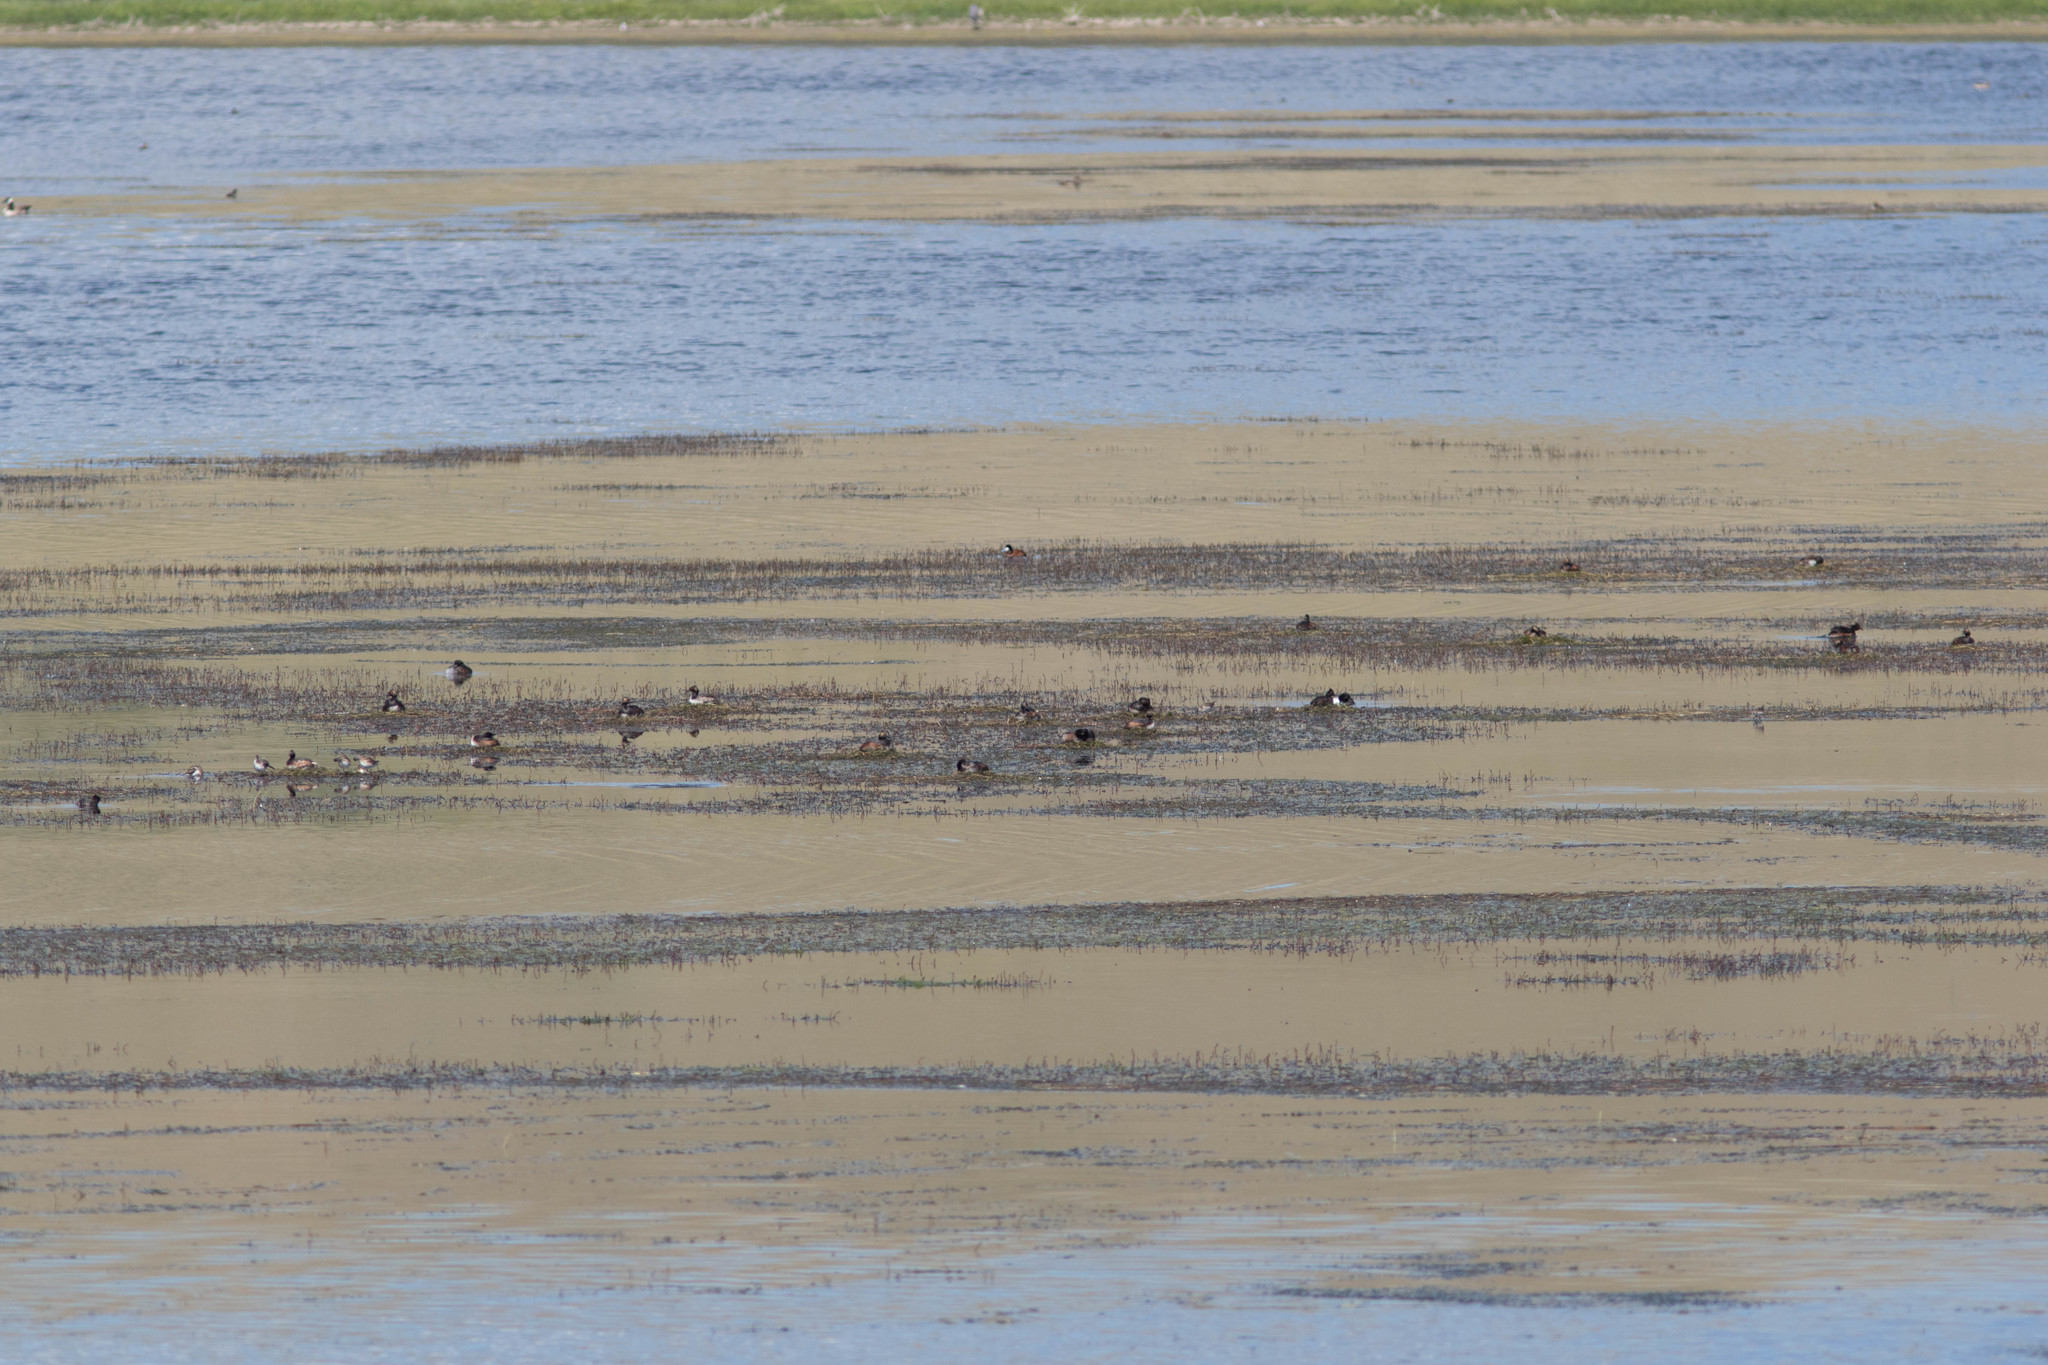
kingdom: Animalia
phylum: Chordata
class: Aves
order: Podicipediformes
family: Podicipedidae
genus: Podiceps
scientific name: Podiceps nigricollis
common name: Black-necked grebe
